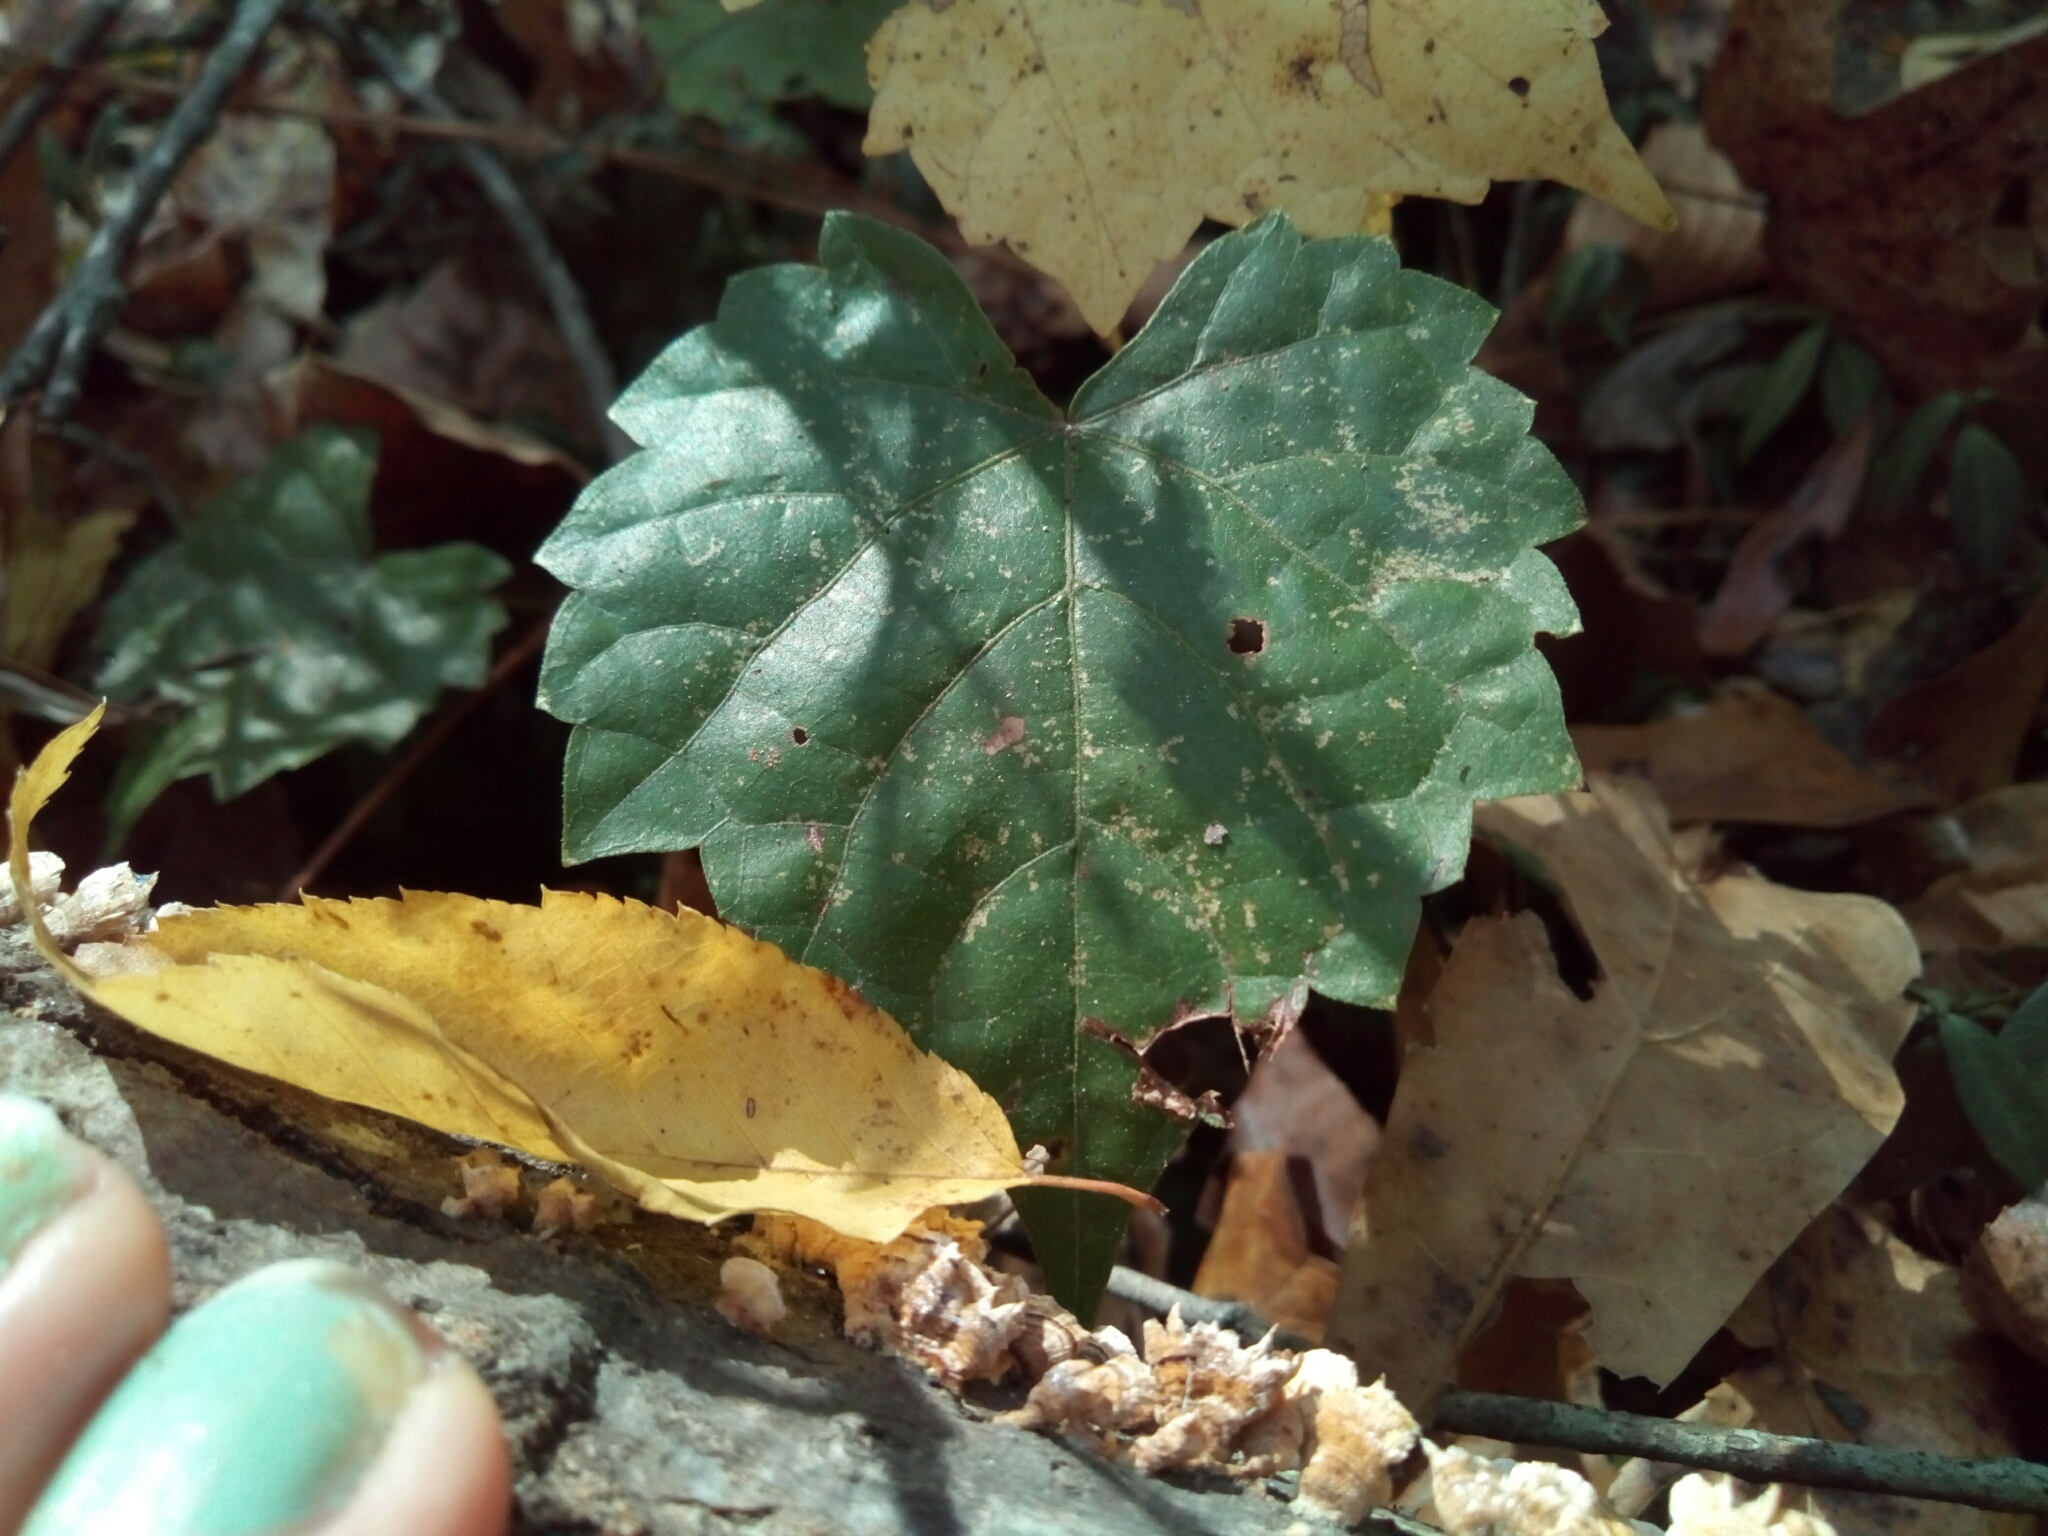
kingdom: Plantae
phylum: Tracheophyta
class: Magnoliopsida
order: Vitales
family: Vitaceae
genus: Vitis
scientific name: Vitis rotundifolia
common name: Muscadine grape
